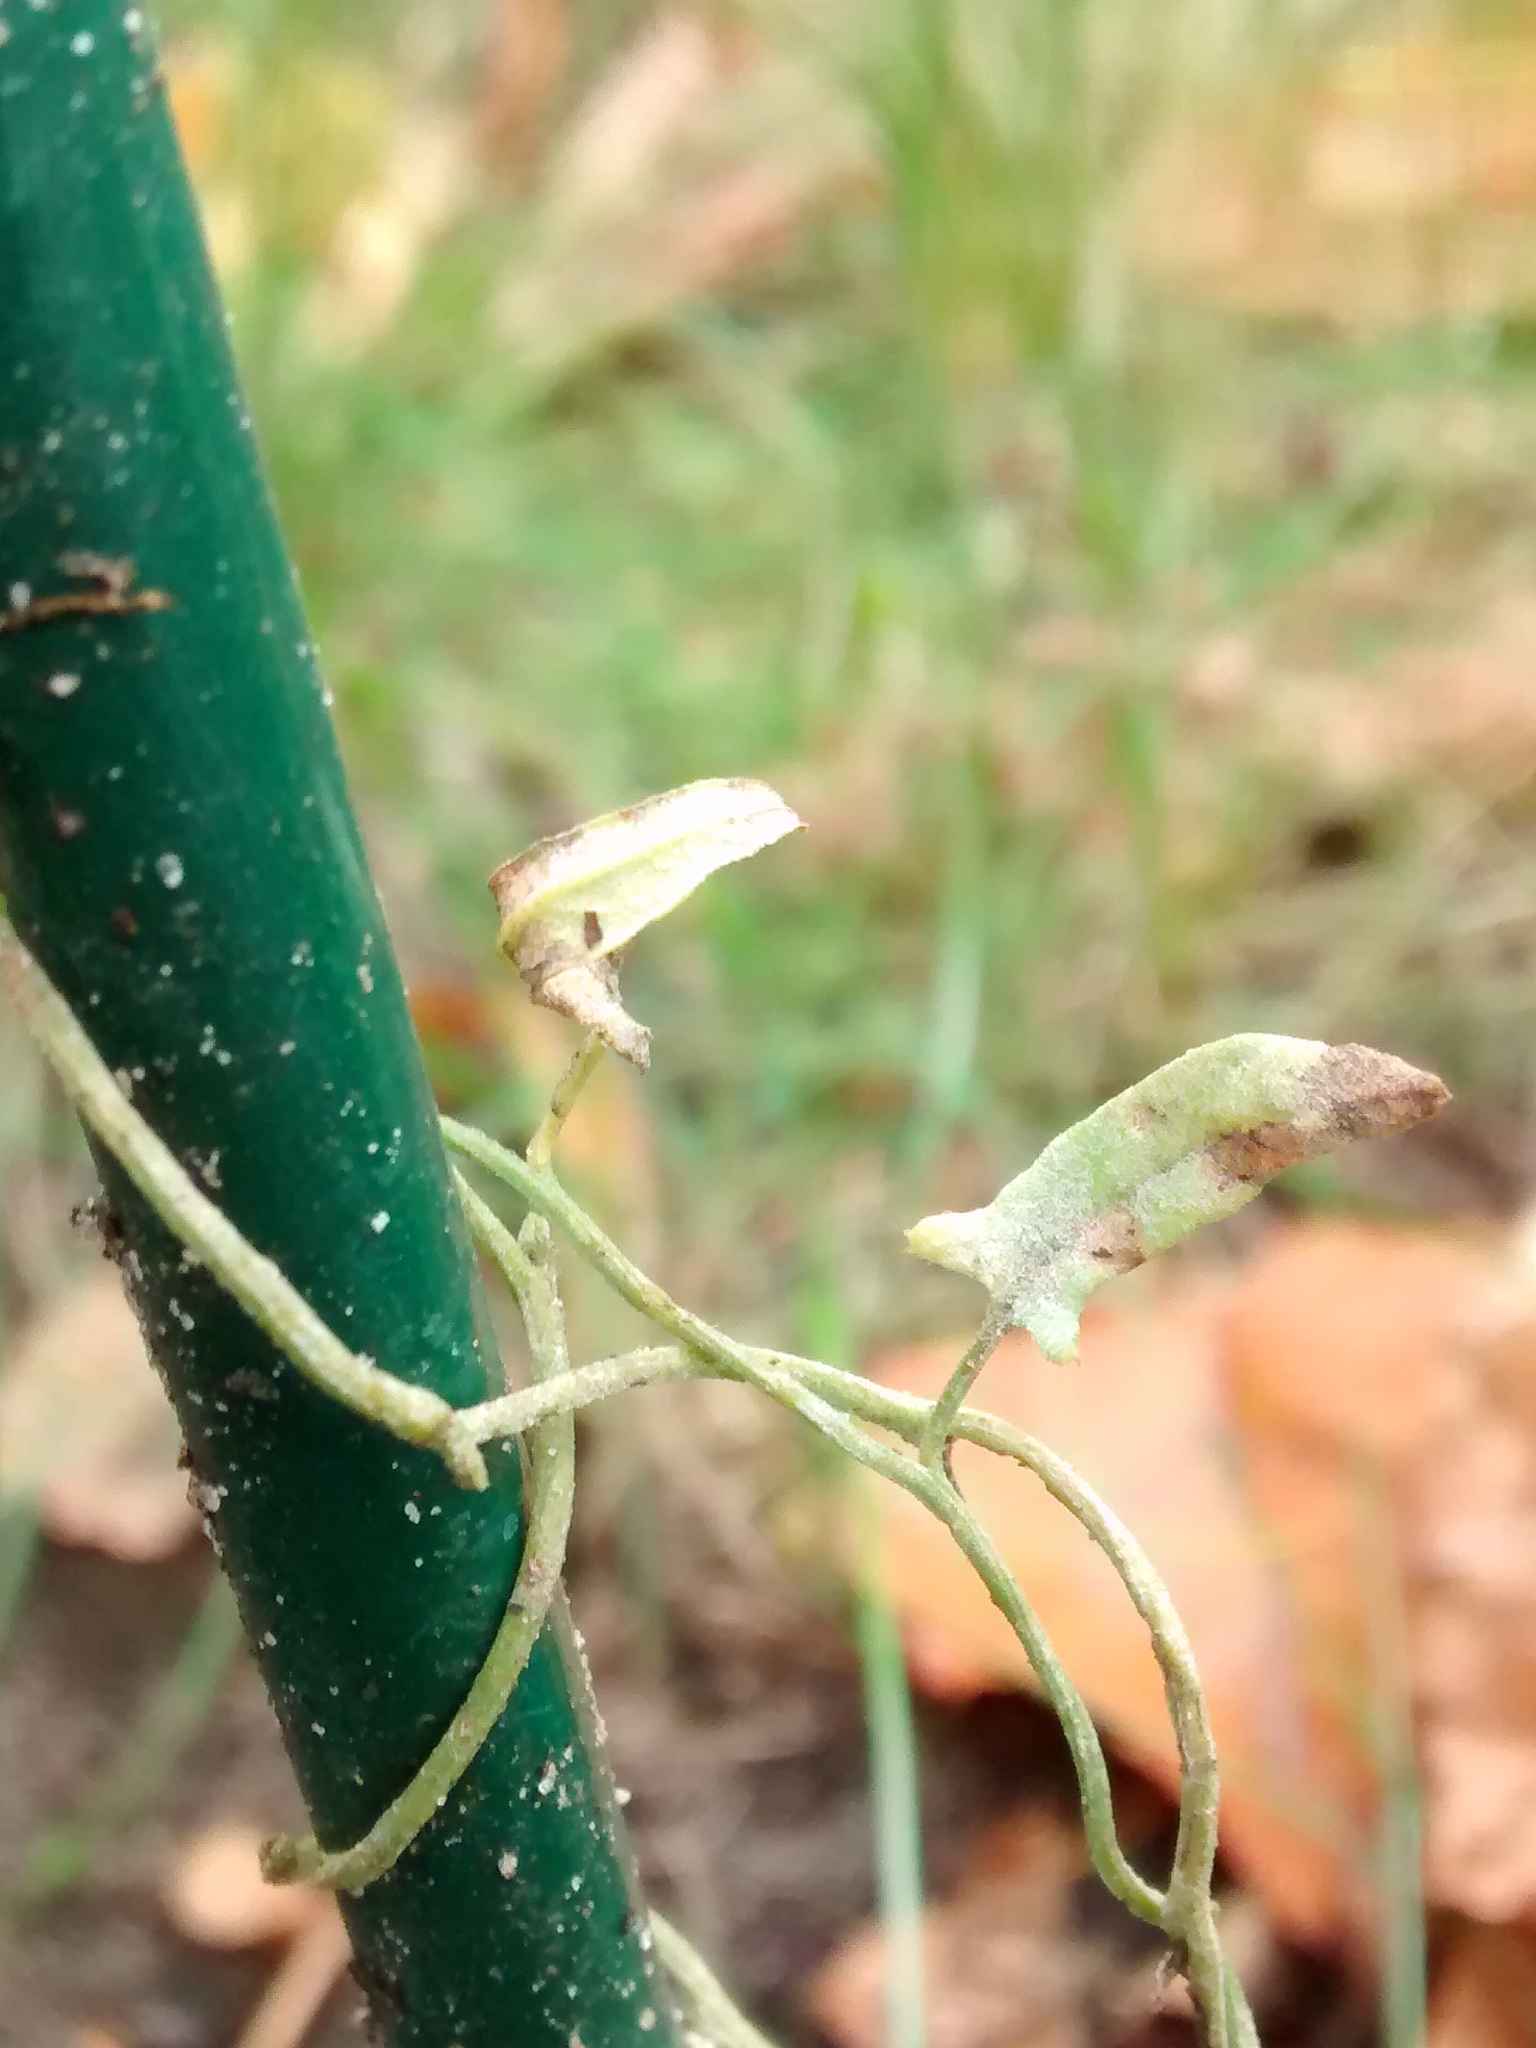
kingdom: Fungi
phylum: Ascomycota
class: Leotiomycetes
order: Helotiales
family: Erysiphaceae
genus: Erysiphe
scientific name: Erysiphe convolvuli
